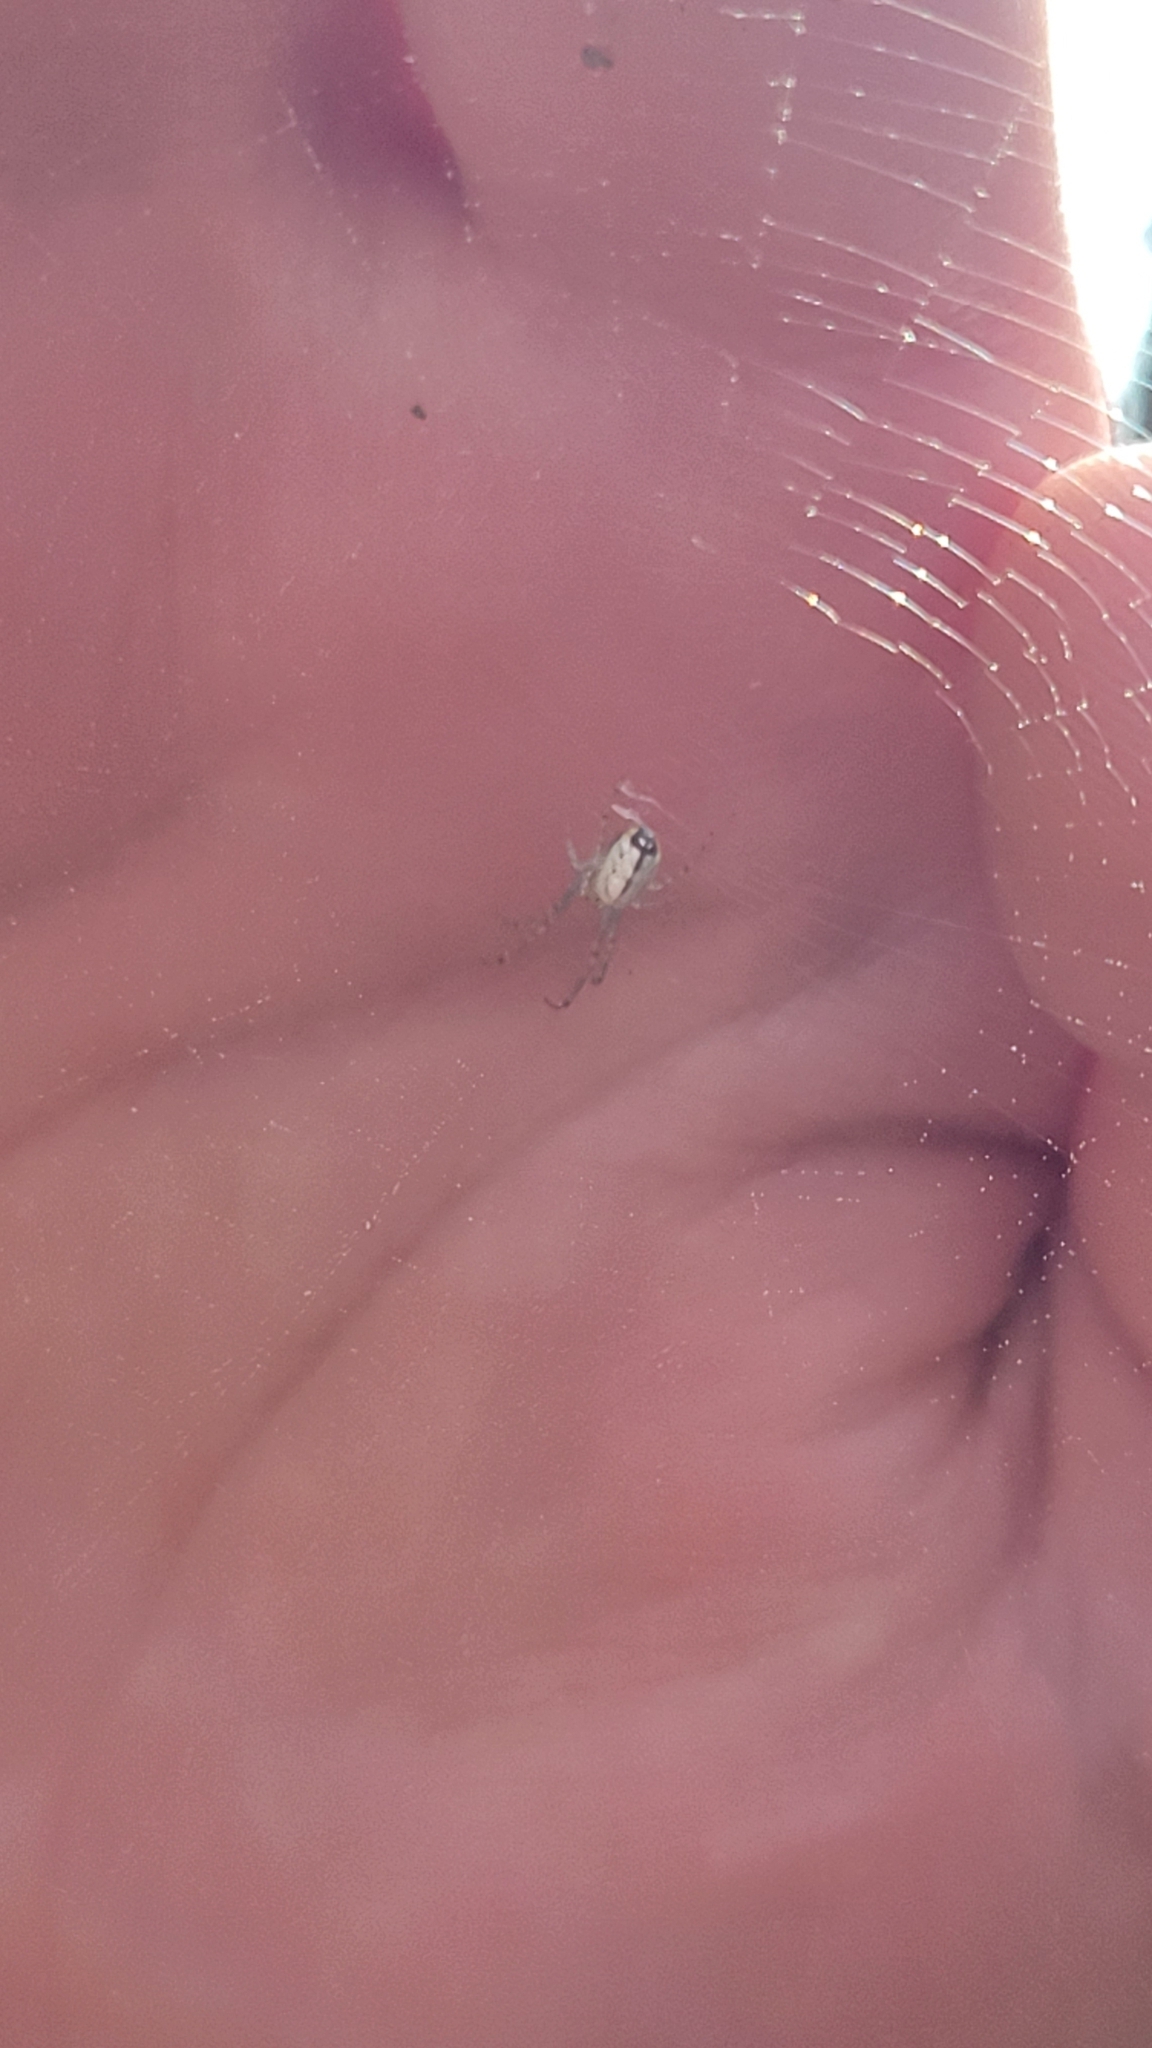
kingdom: Animalia
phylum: Arthropoda
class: Arachnida
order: Araneae
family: Tetragnathidae
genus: Leucauge
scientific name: Leucauge venusta
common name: Longjawed orb weavers
